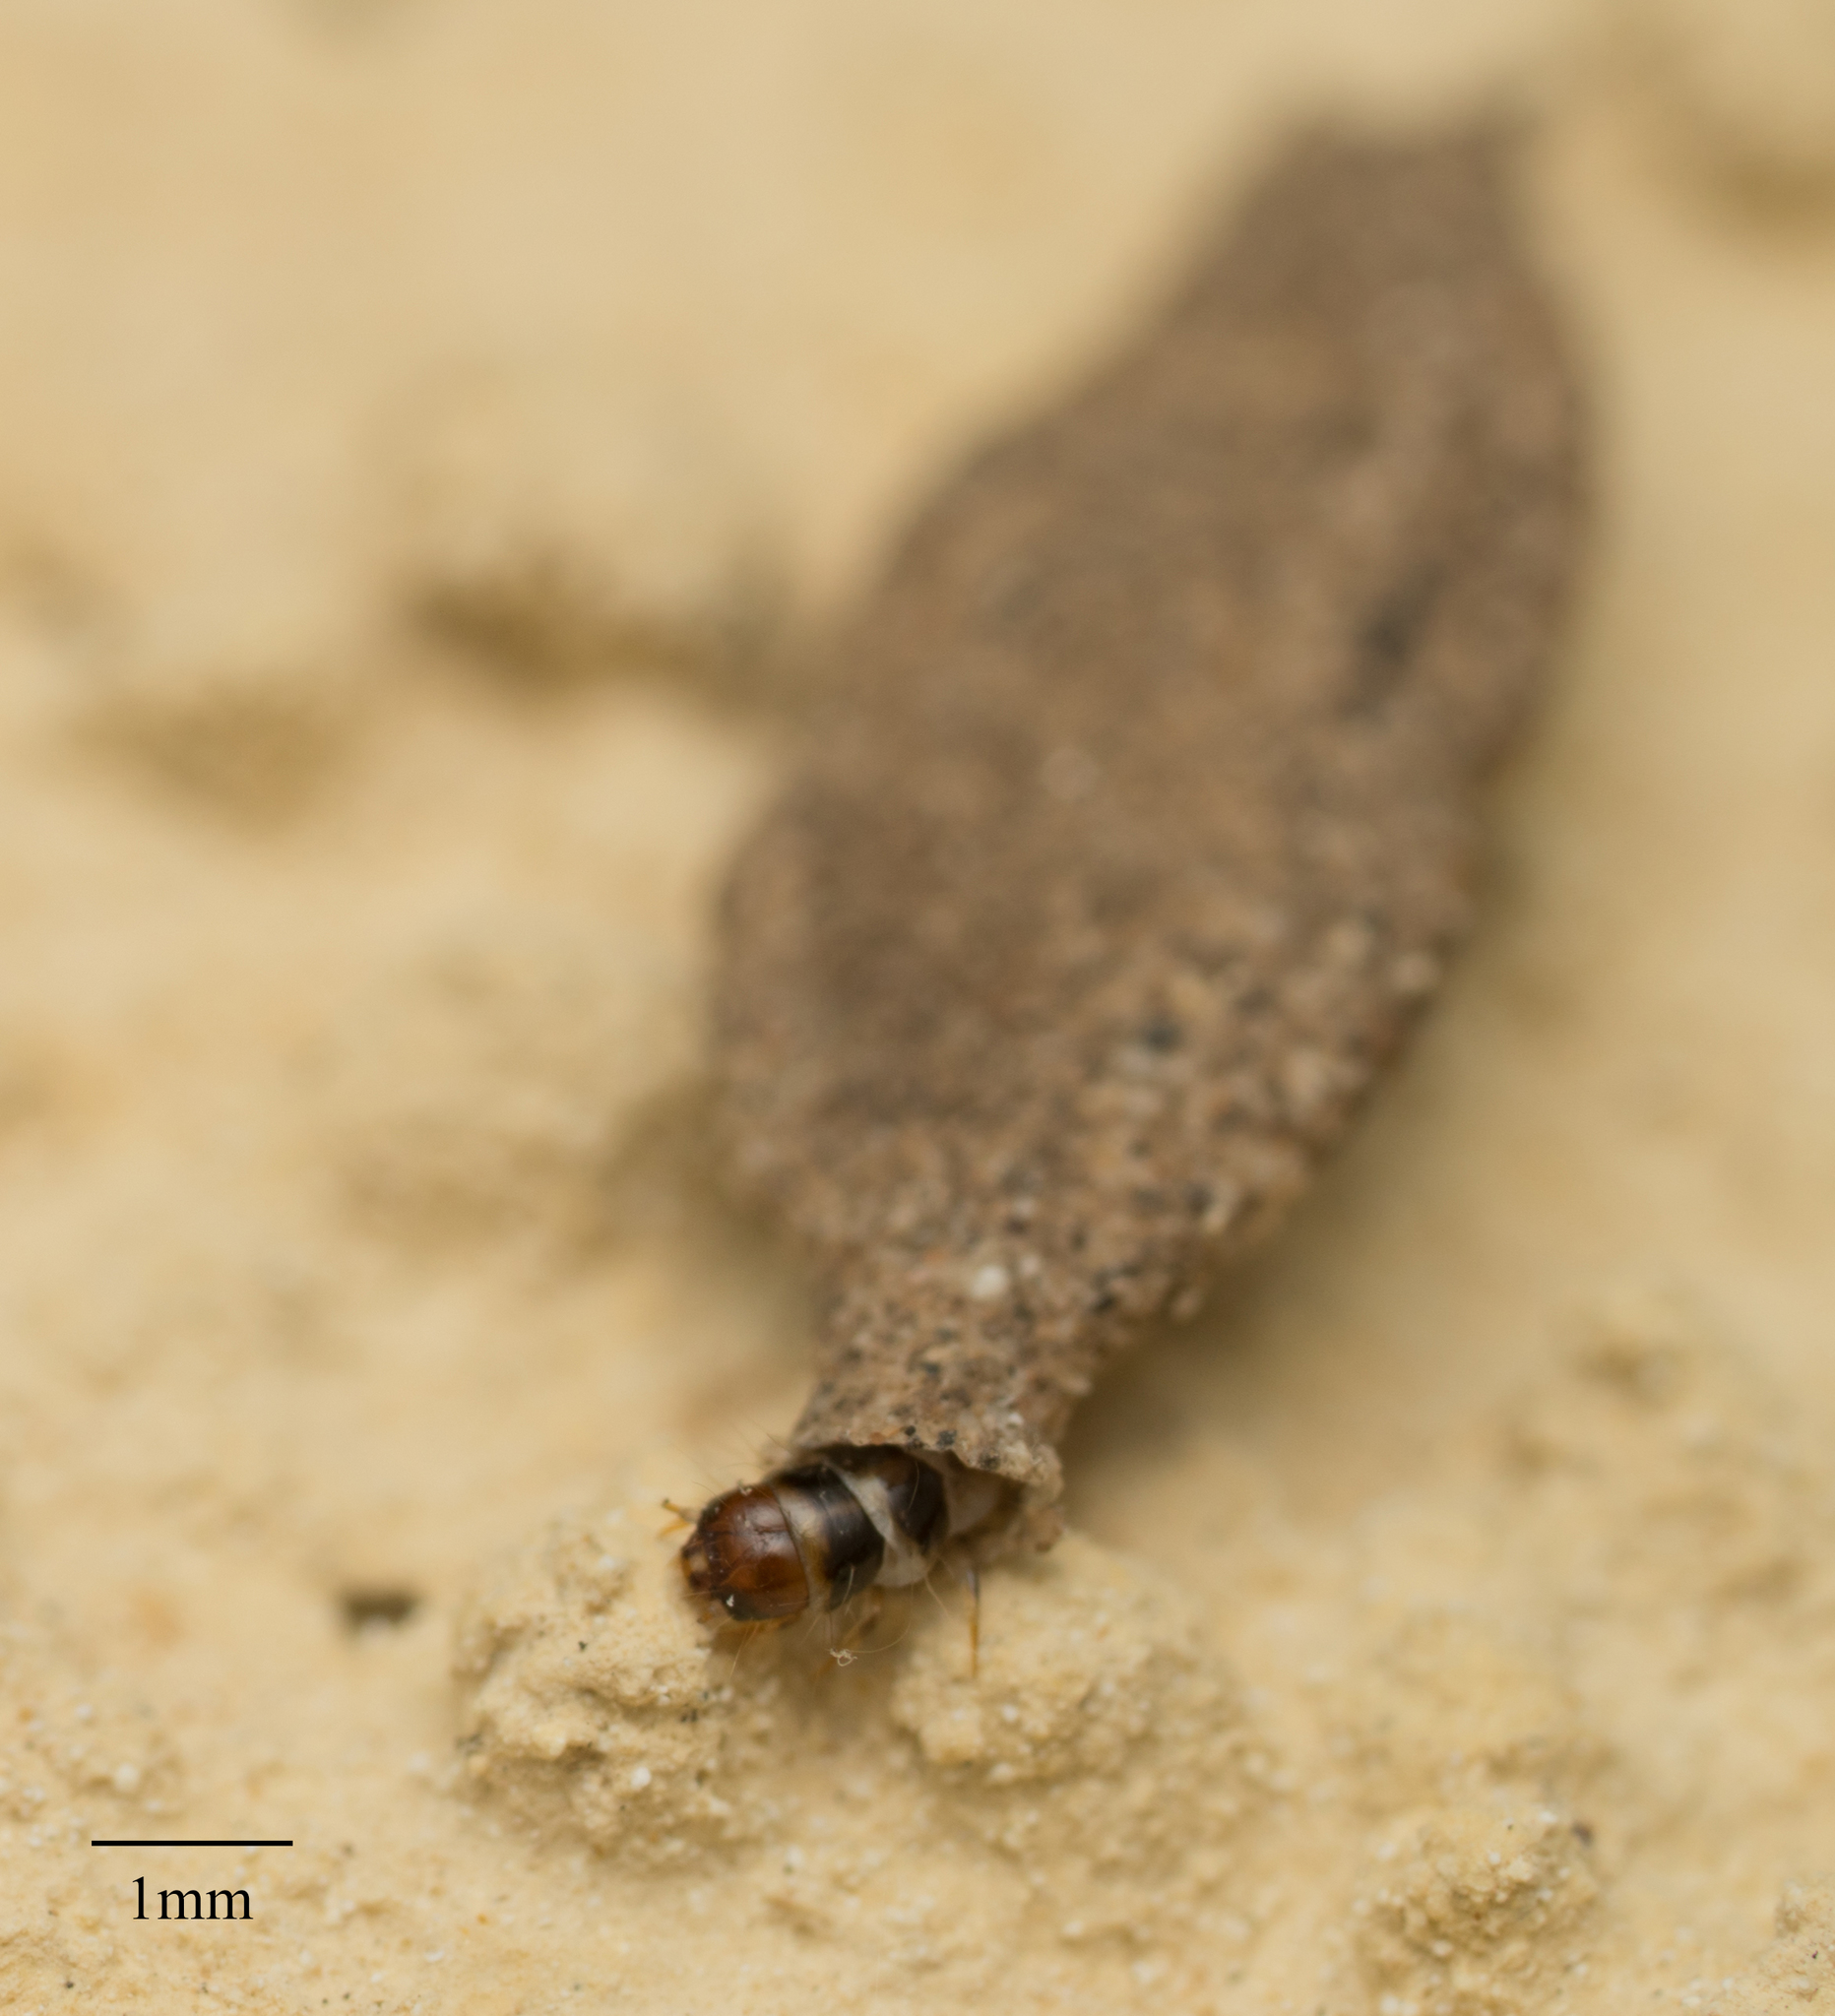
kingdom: Animalia
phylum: Arthropoda
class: Insecta
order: Lepidoptera
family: Tineidae
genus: Phereoeca
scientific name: Phereoeca praecox
